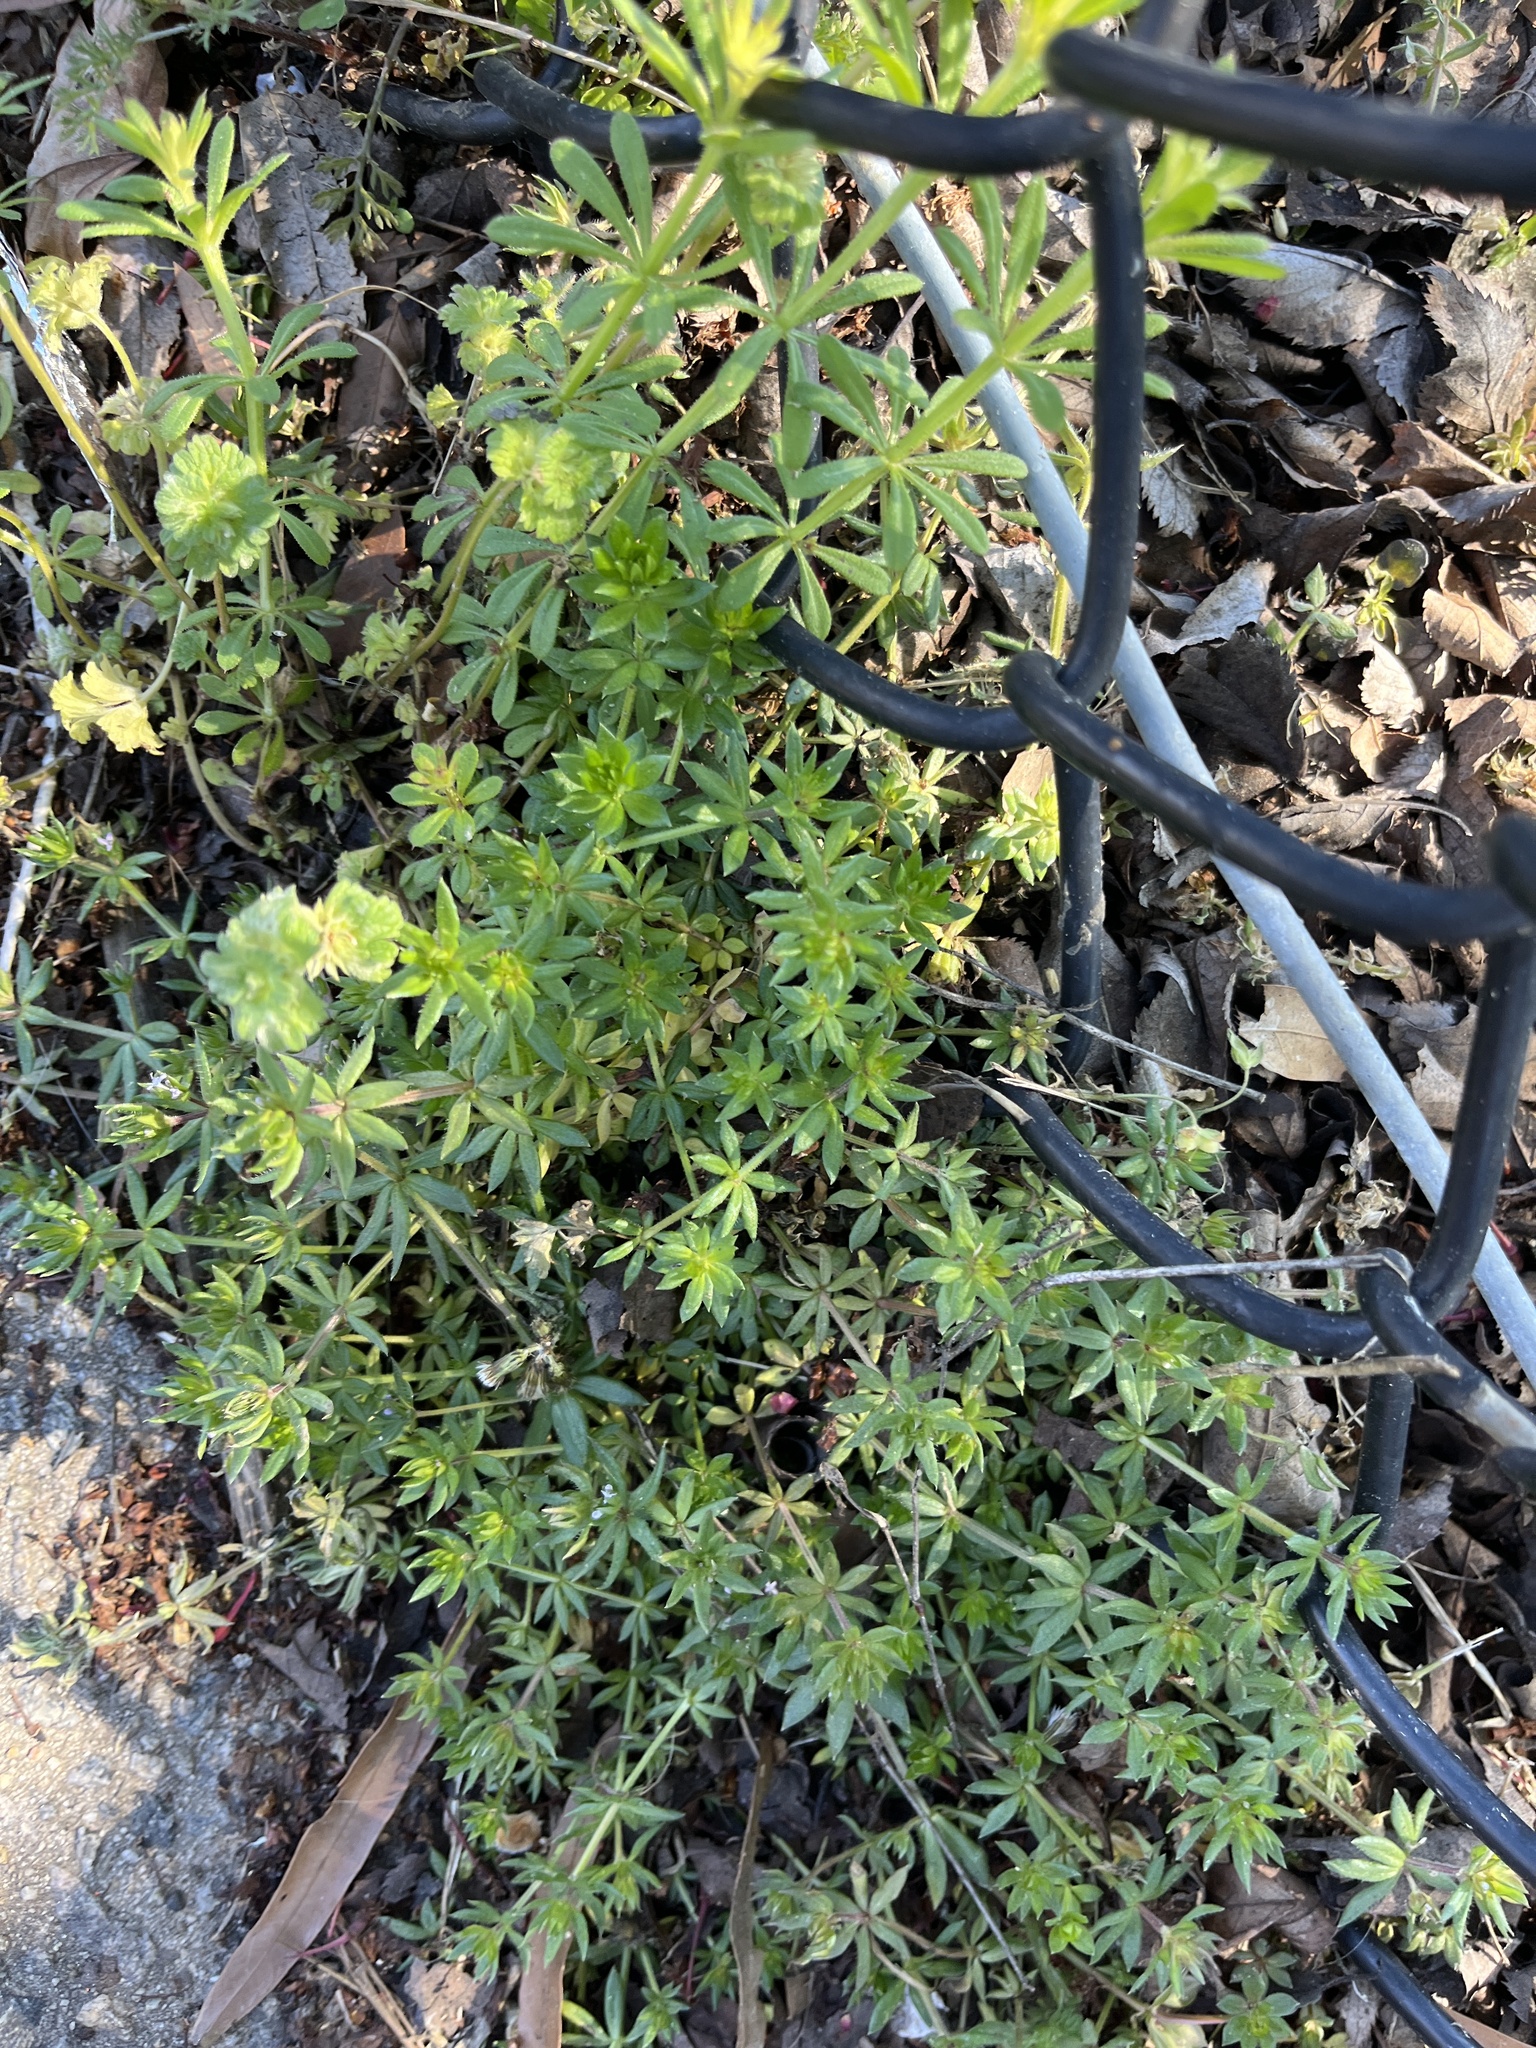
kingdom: Plantae
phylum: Tracheophyta
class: Magnoliopsida
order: Gentianales
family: Rubiaceae
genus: Galium
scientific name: Galium aparine
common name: Cleavers
